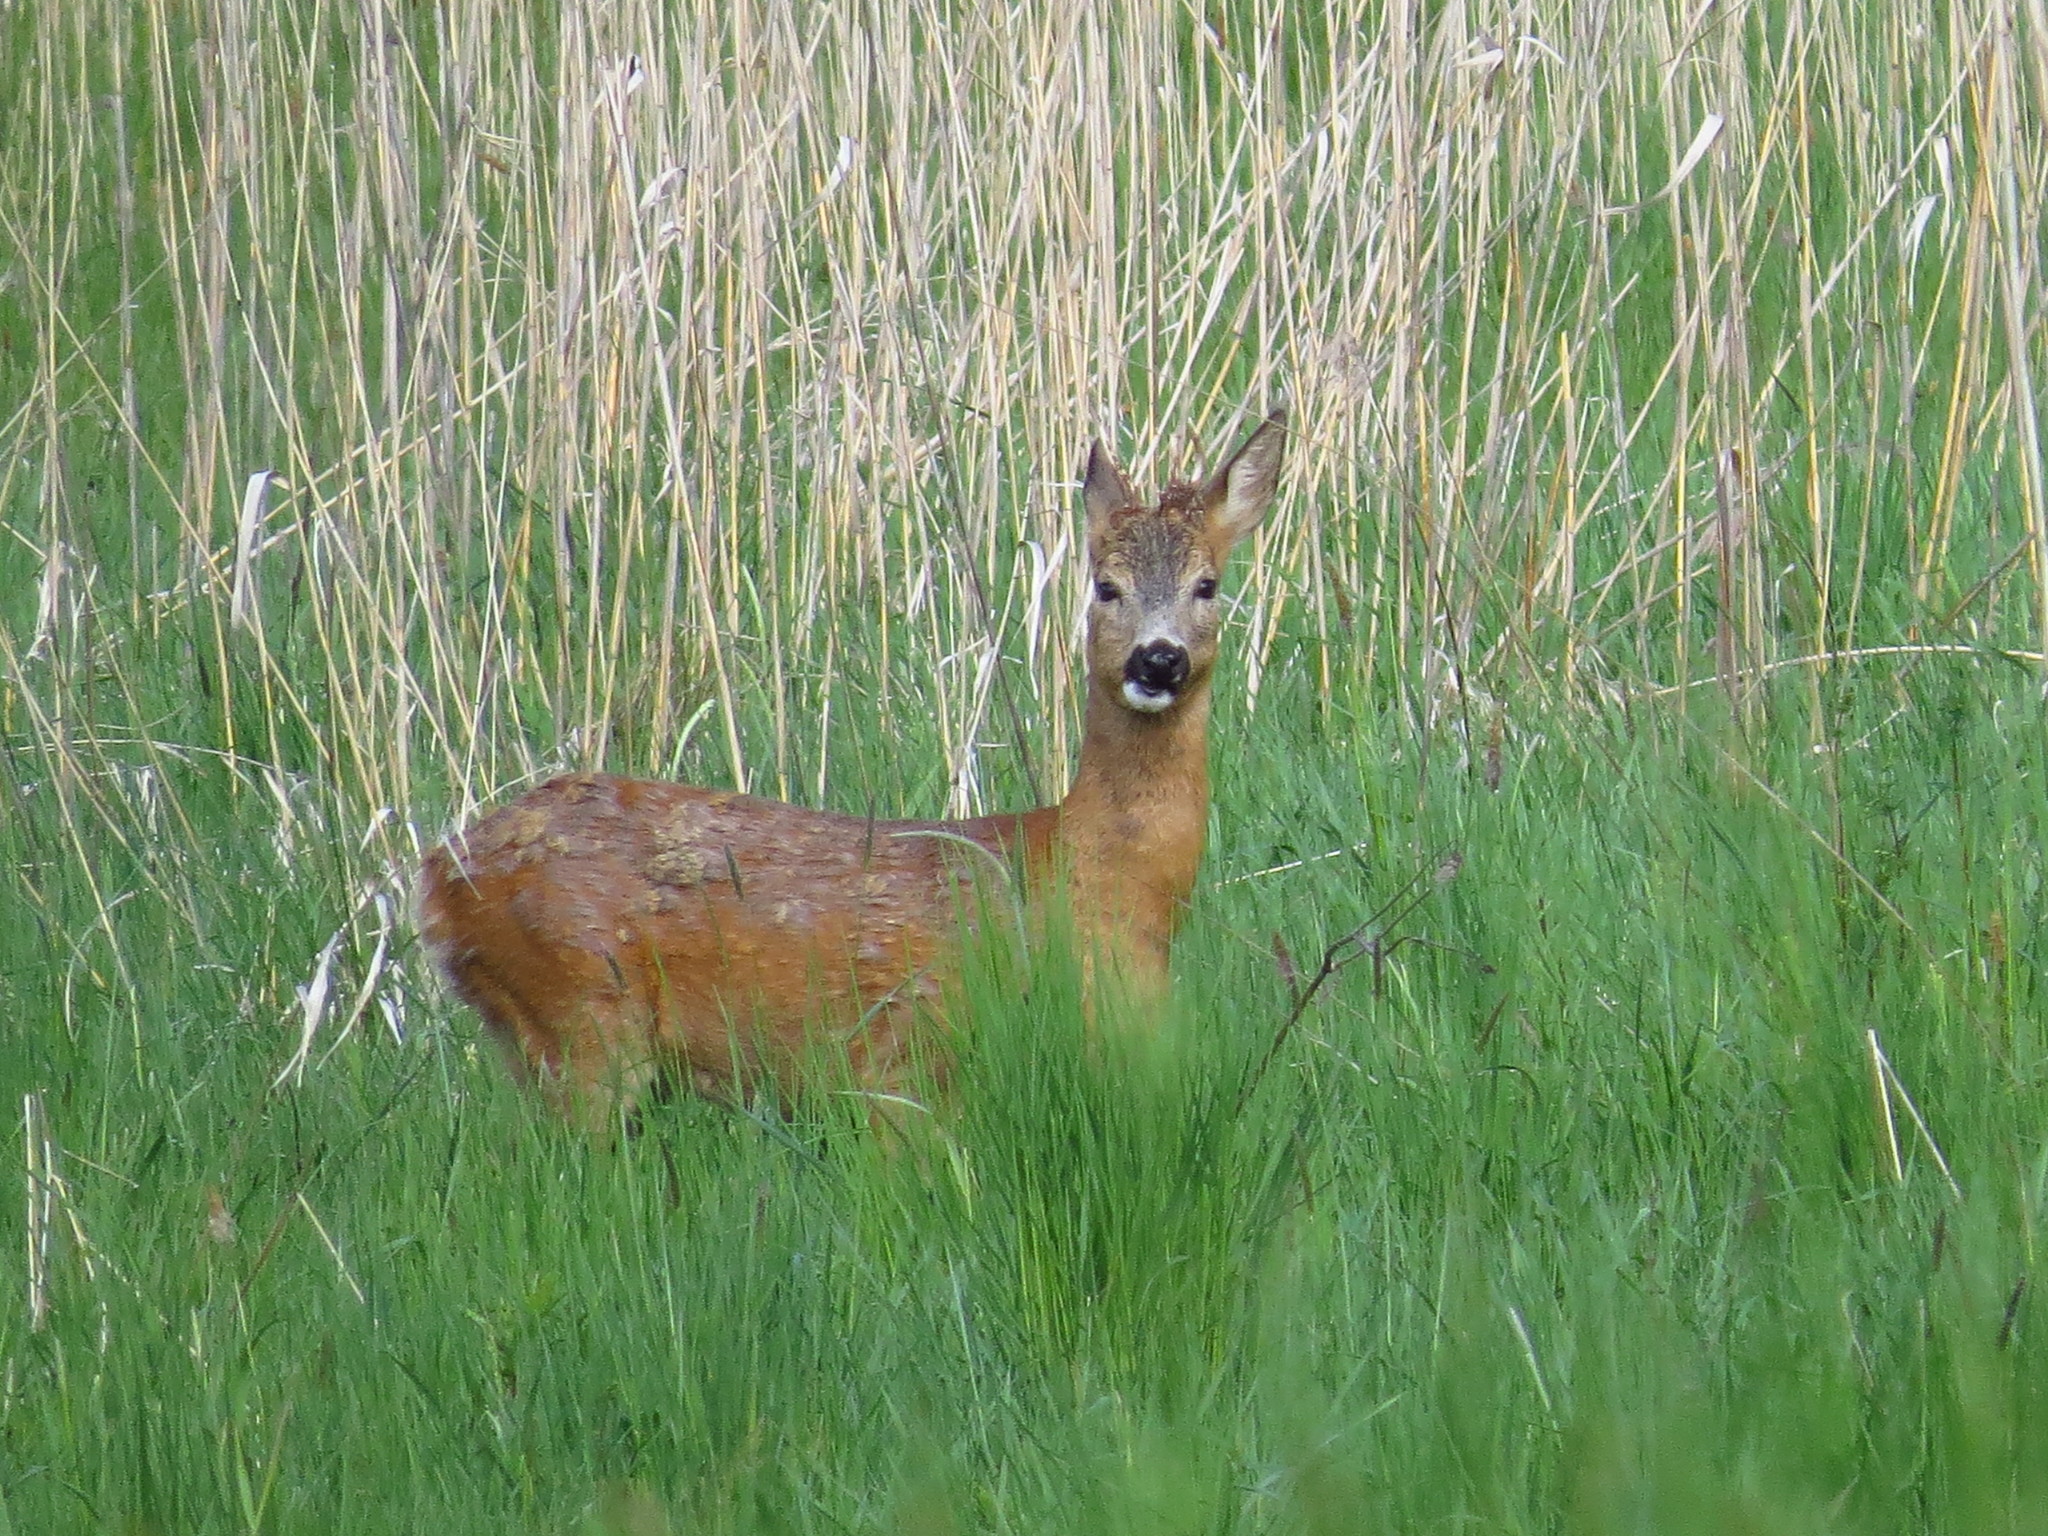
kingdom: Animalia
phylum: Chordata
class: Mammalia
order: Artiodactyla
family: Cervidae
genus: Capreolus
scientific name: Capreolus capreolus
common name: Western roe deer
